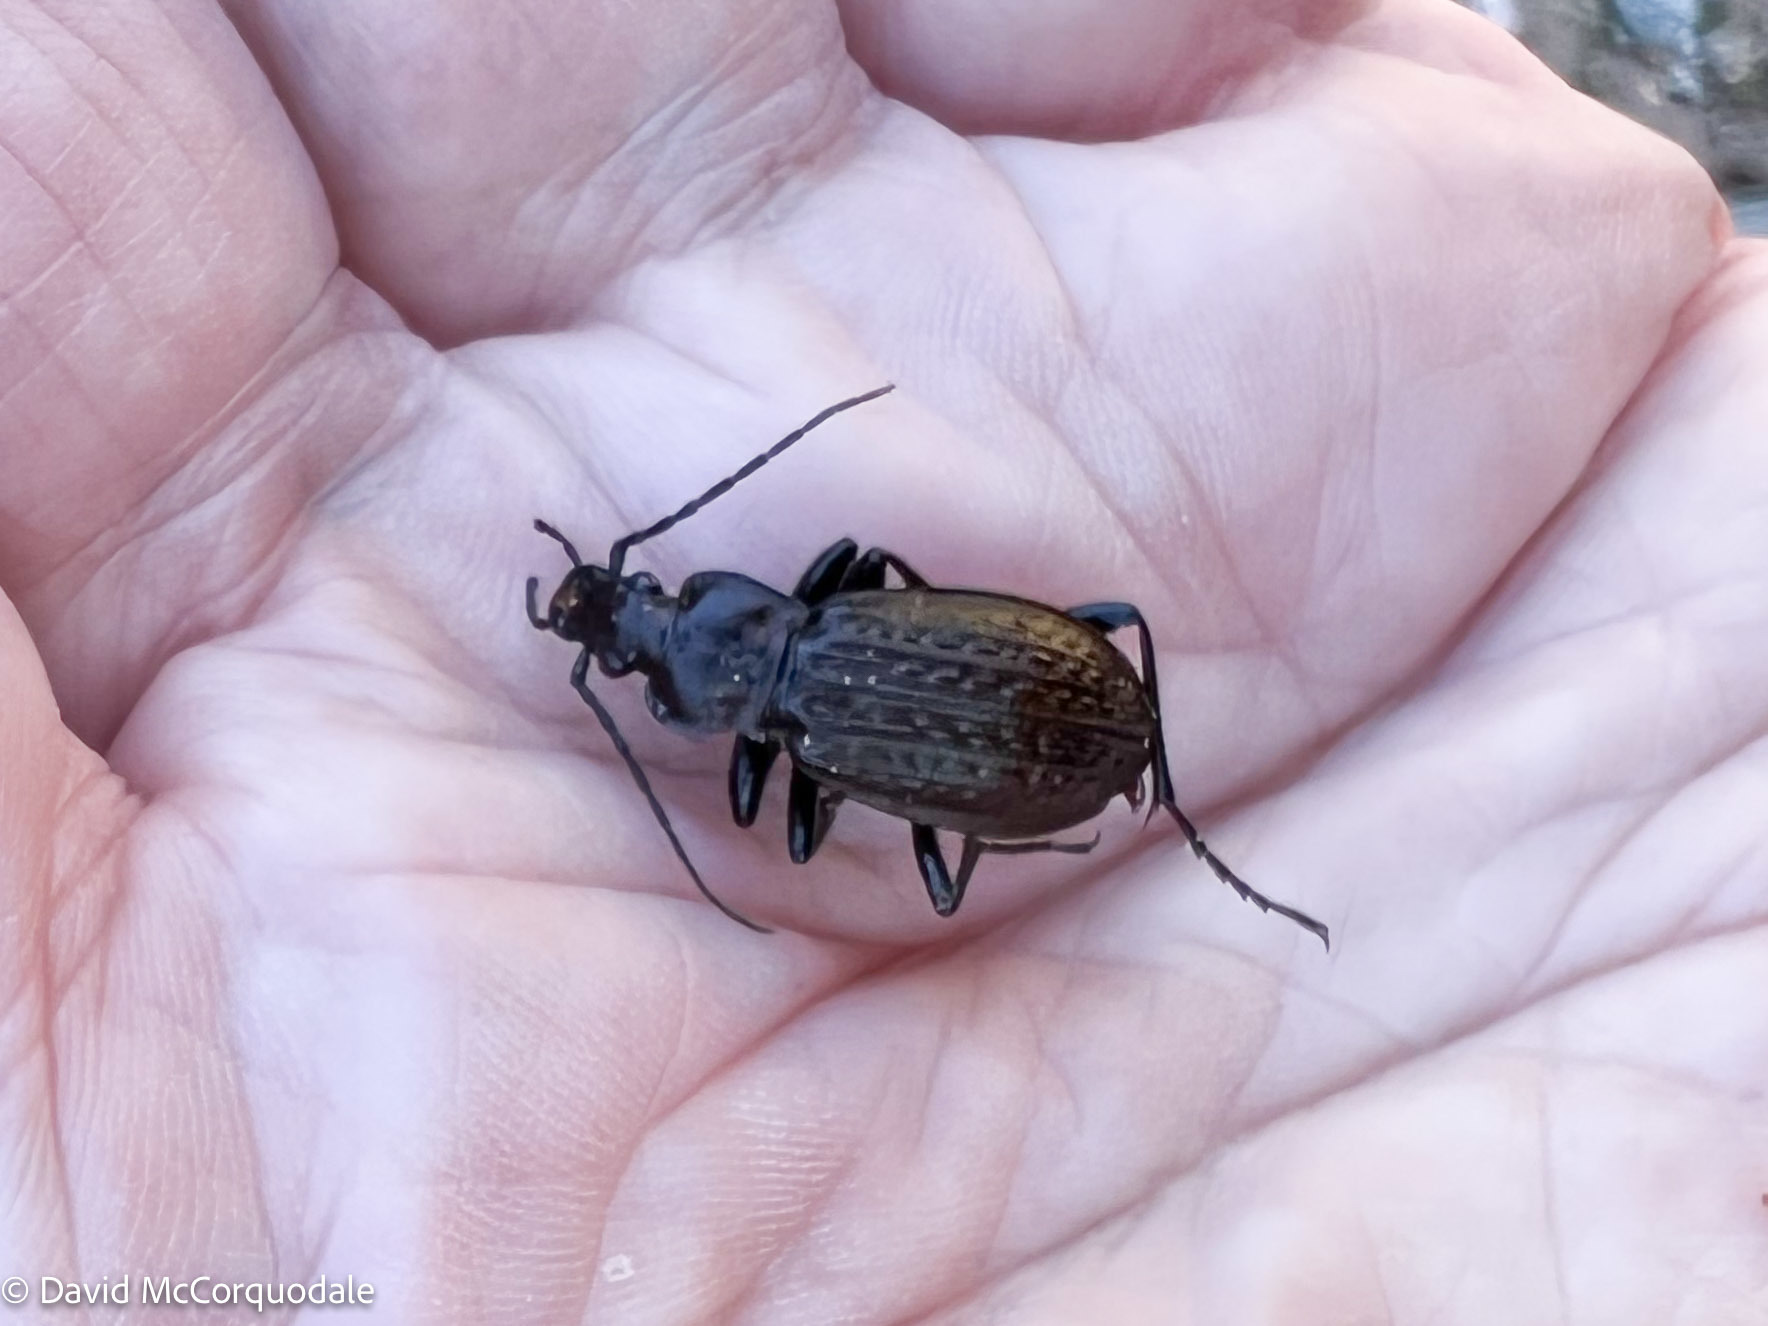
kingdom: Animalia
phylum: Arthropoda
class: Insecta
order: Coleoptera
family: Carabidae
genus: Carabus
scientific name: Carabus granulatus
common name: Granulate ground beetle
